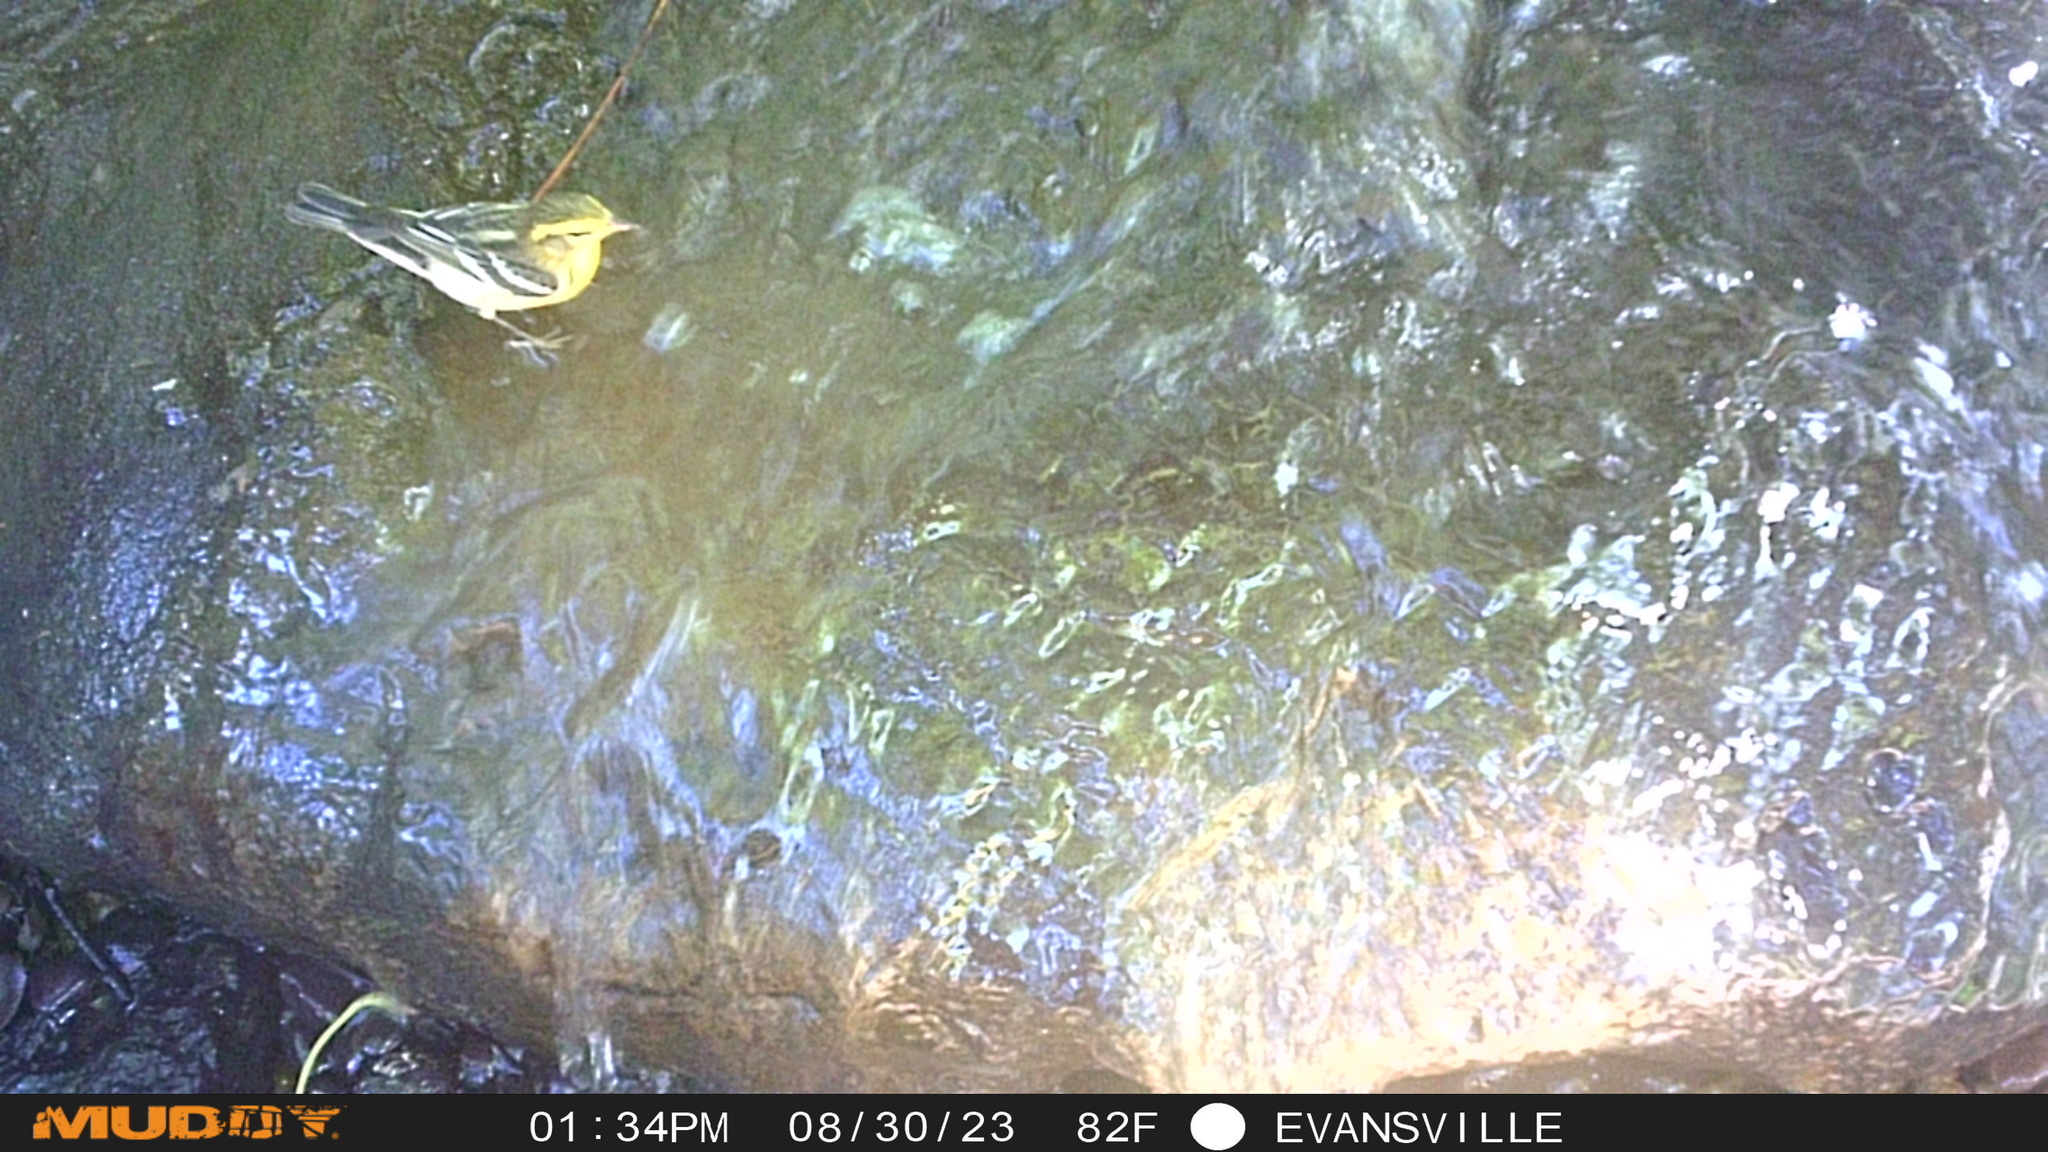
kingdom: Animalia
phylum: Chordata
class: Aves
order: Passeriformes
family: Parulidae
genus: Setophaga
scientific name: Setophaga fusca
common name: Blackburnian warbler
